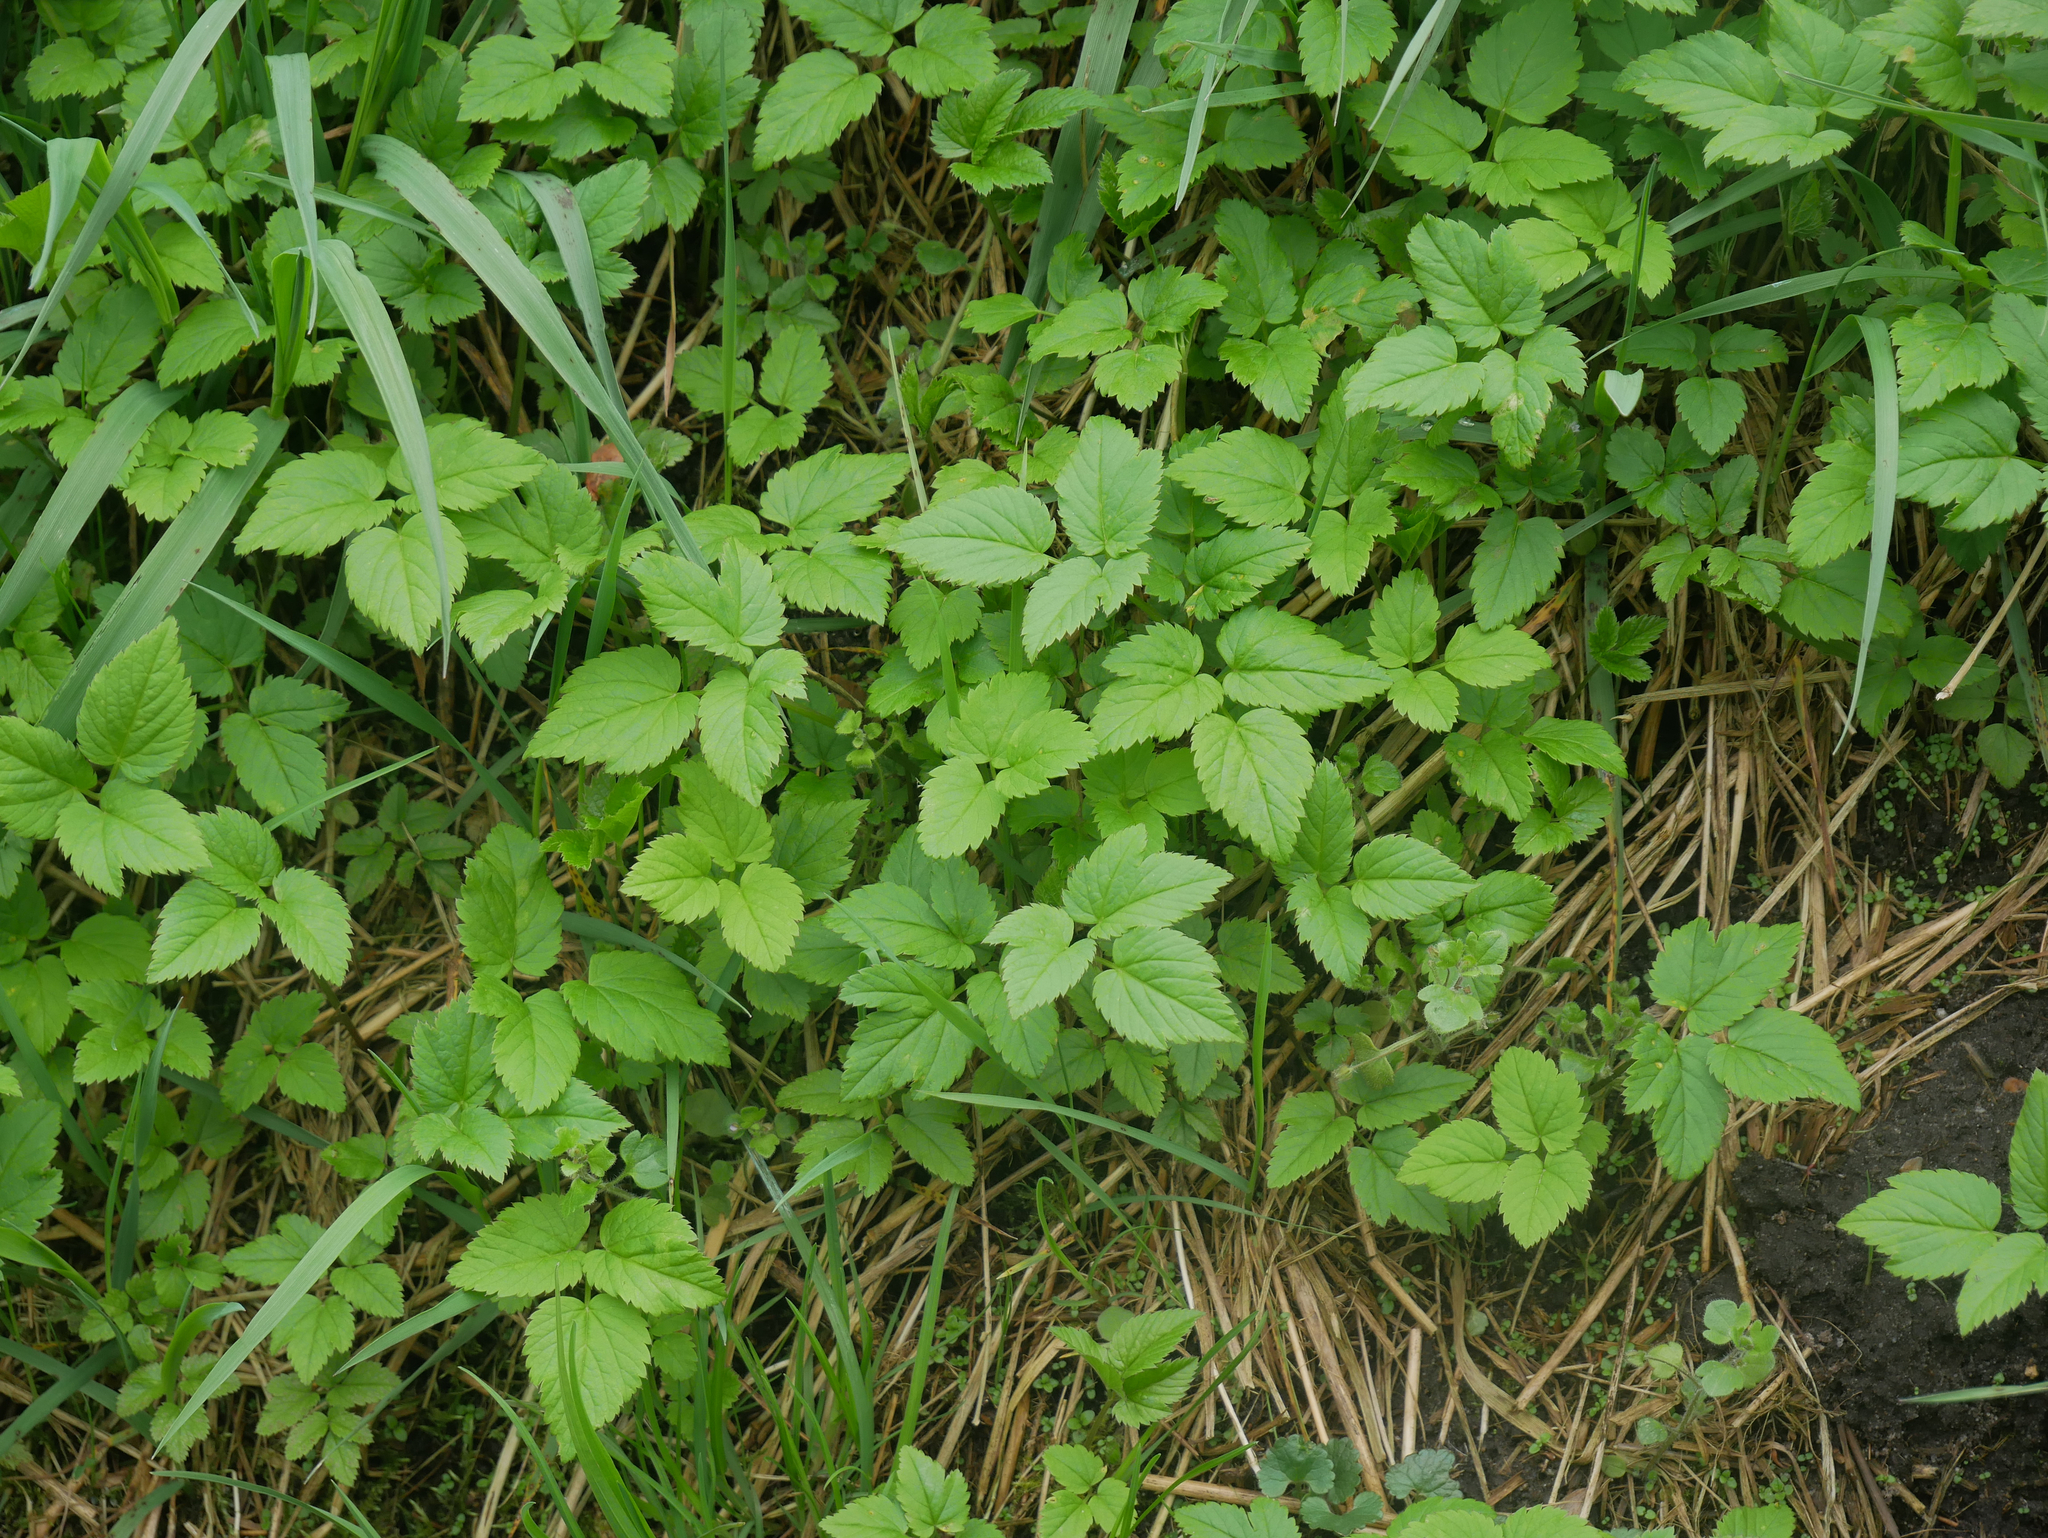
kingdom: Plantae
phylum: Tracheophyta
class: Magnoliopsida
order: Apiales
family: Apiaceae
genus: Aegopodium
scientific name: Aegopodium podagraria
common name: Ground-elder
